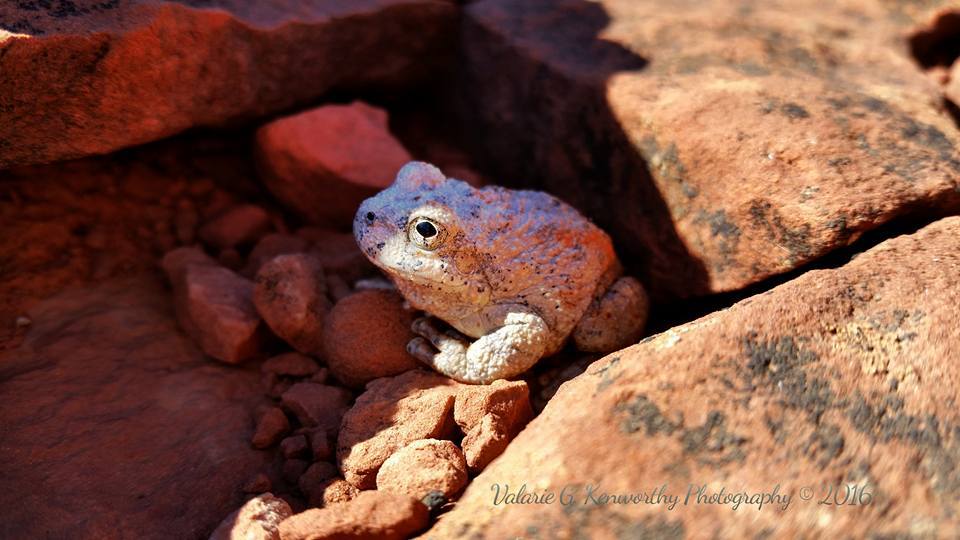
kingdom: Animalia
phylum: Chordata
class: Amphibia
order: Anura
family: Hylidae
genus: Dryophytes
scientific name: Dryophytes arenicolor
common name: Canyon treefrog
